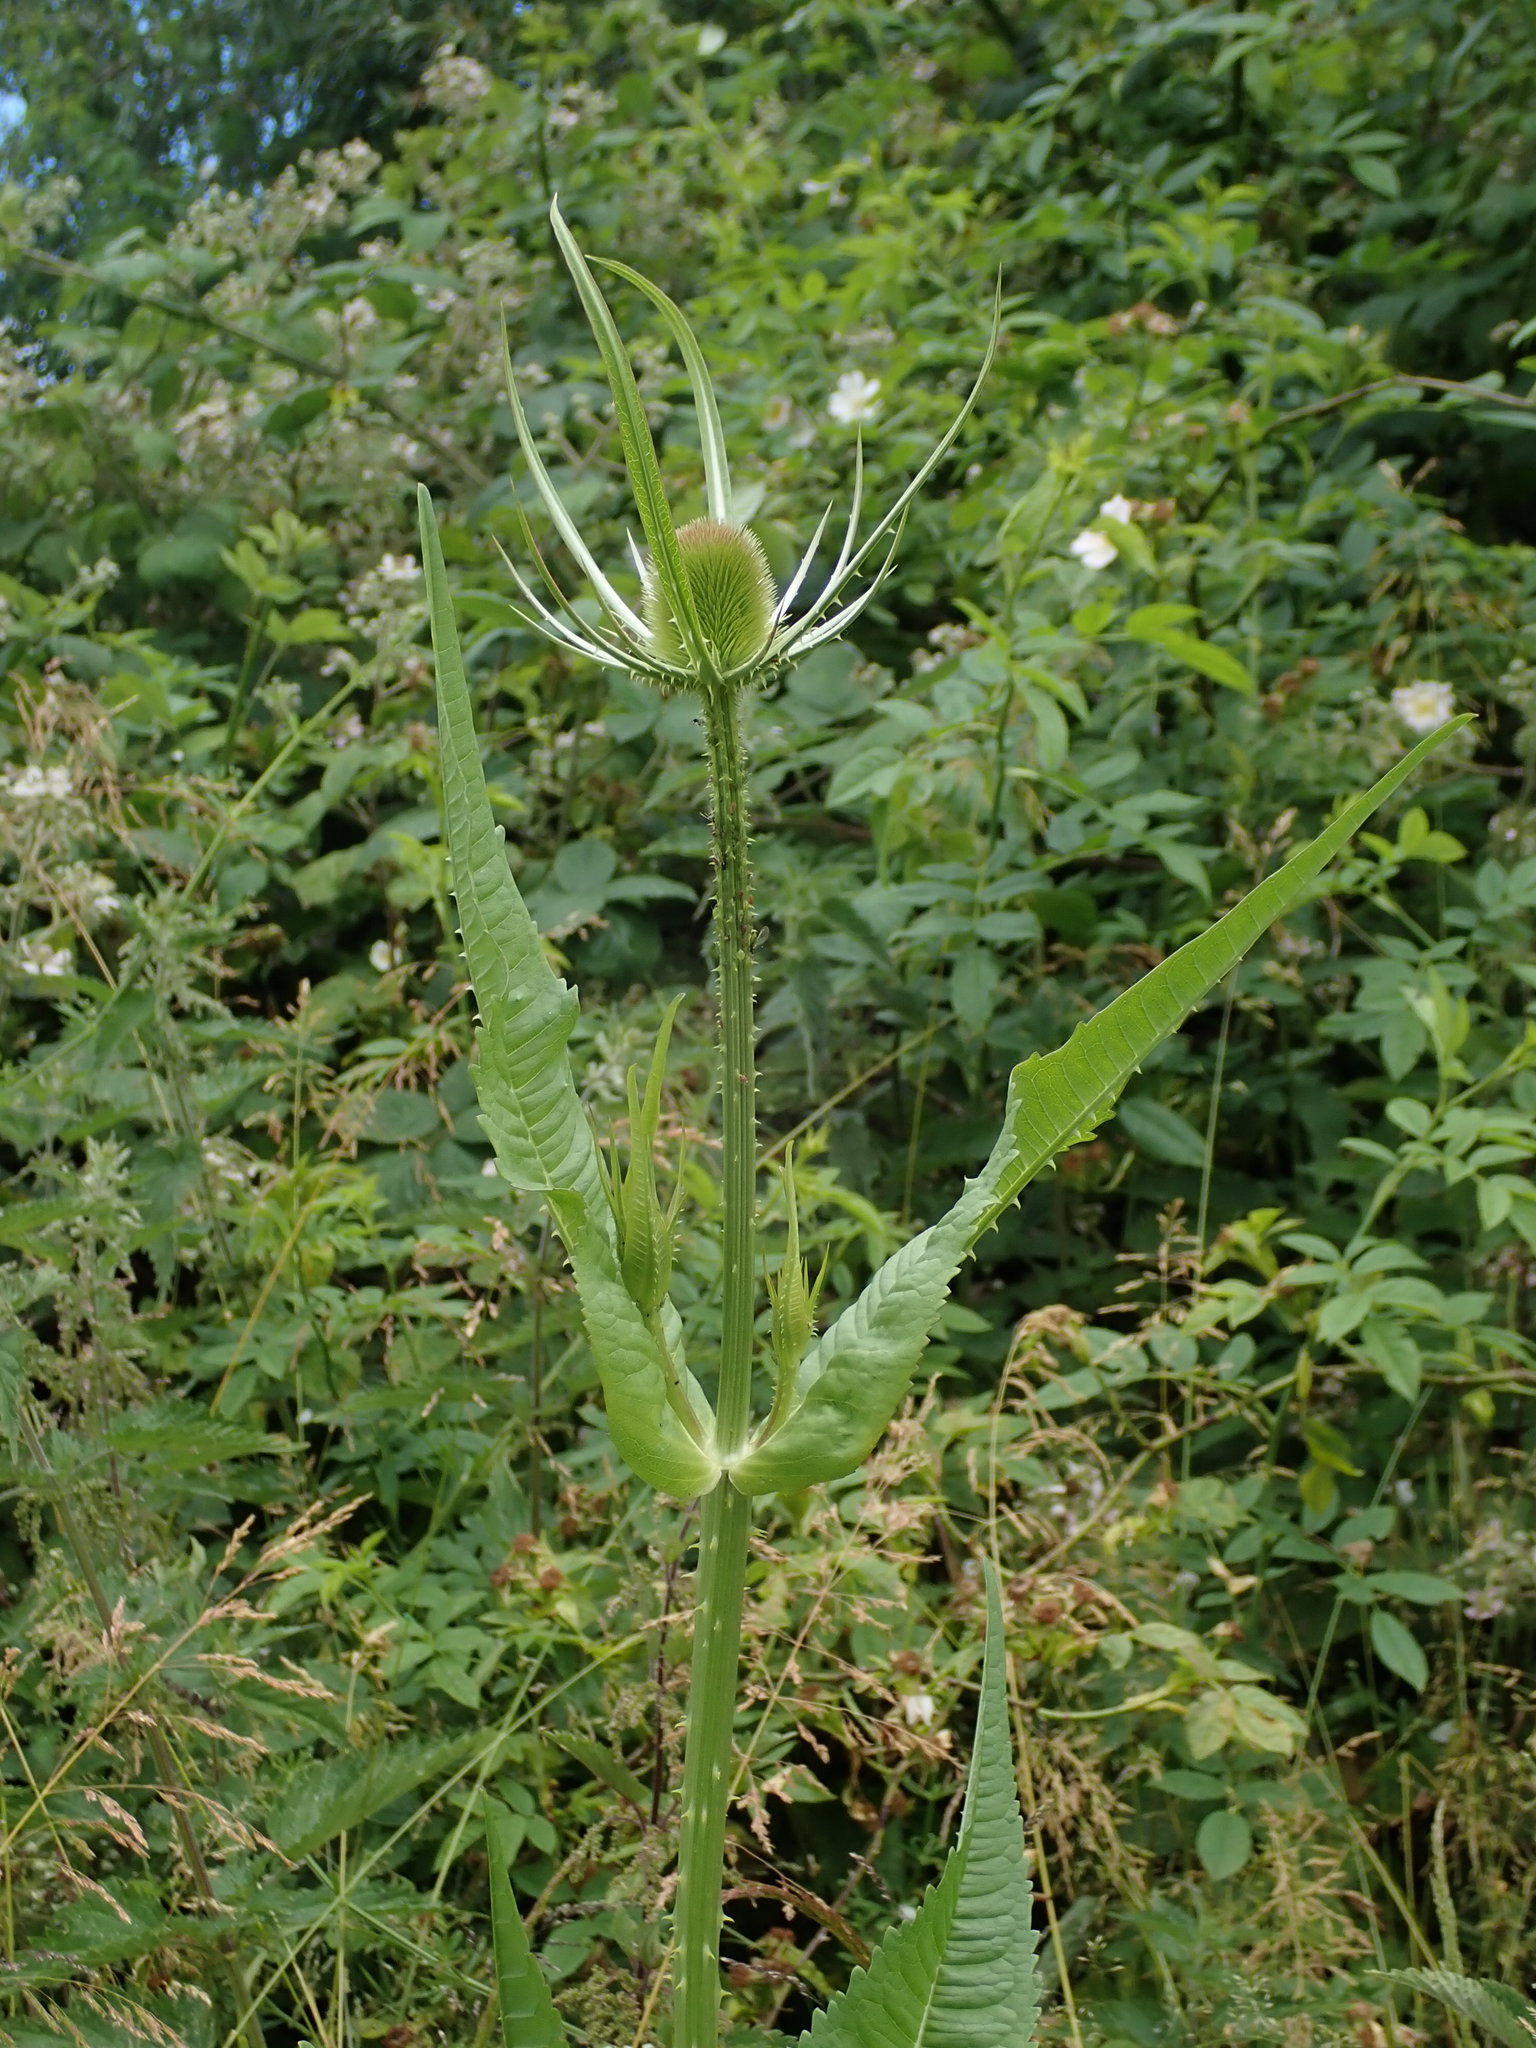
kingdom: Plantae
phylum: Tracheophyta
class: Magnoliopsida
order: Dipsacales
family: Caprifoliaceae
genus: Dipsacus
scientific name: Dipsacus fullonum
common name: Teasel
